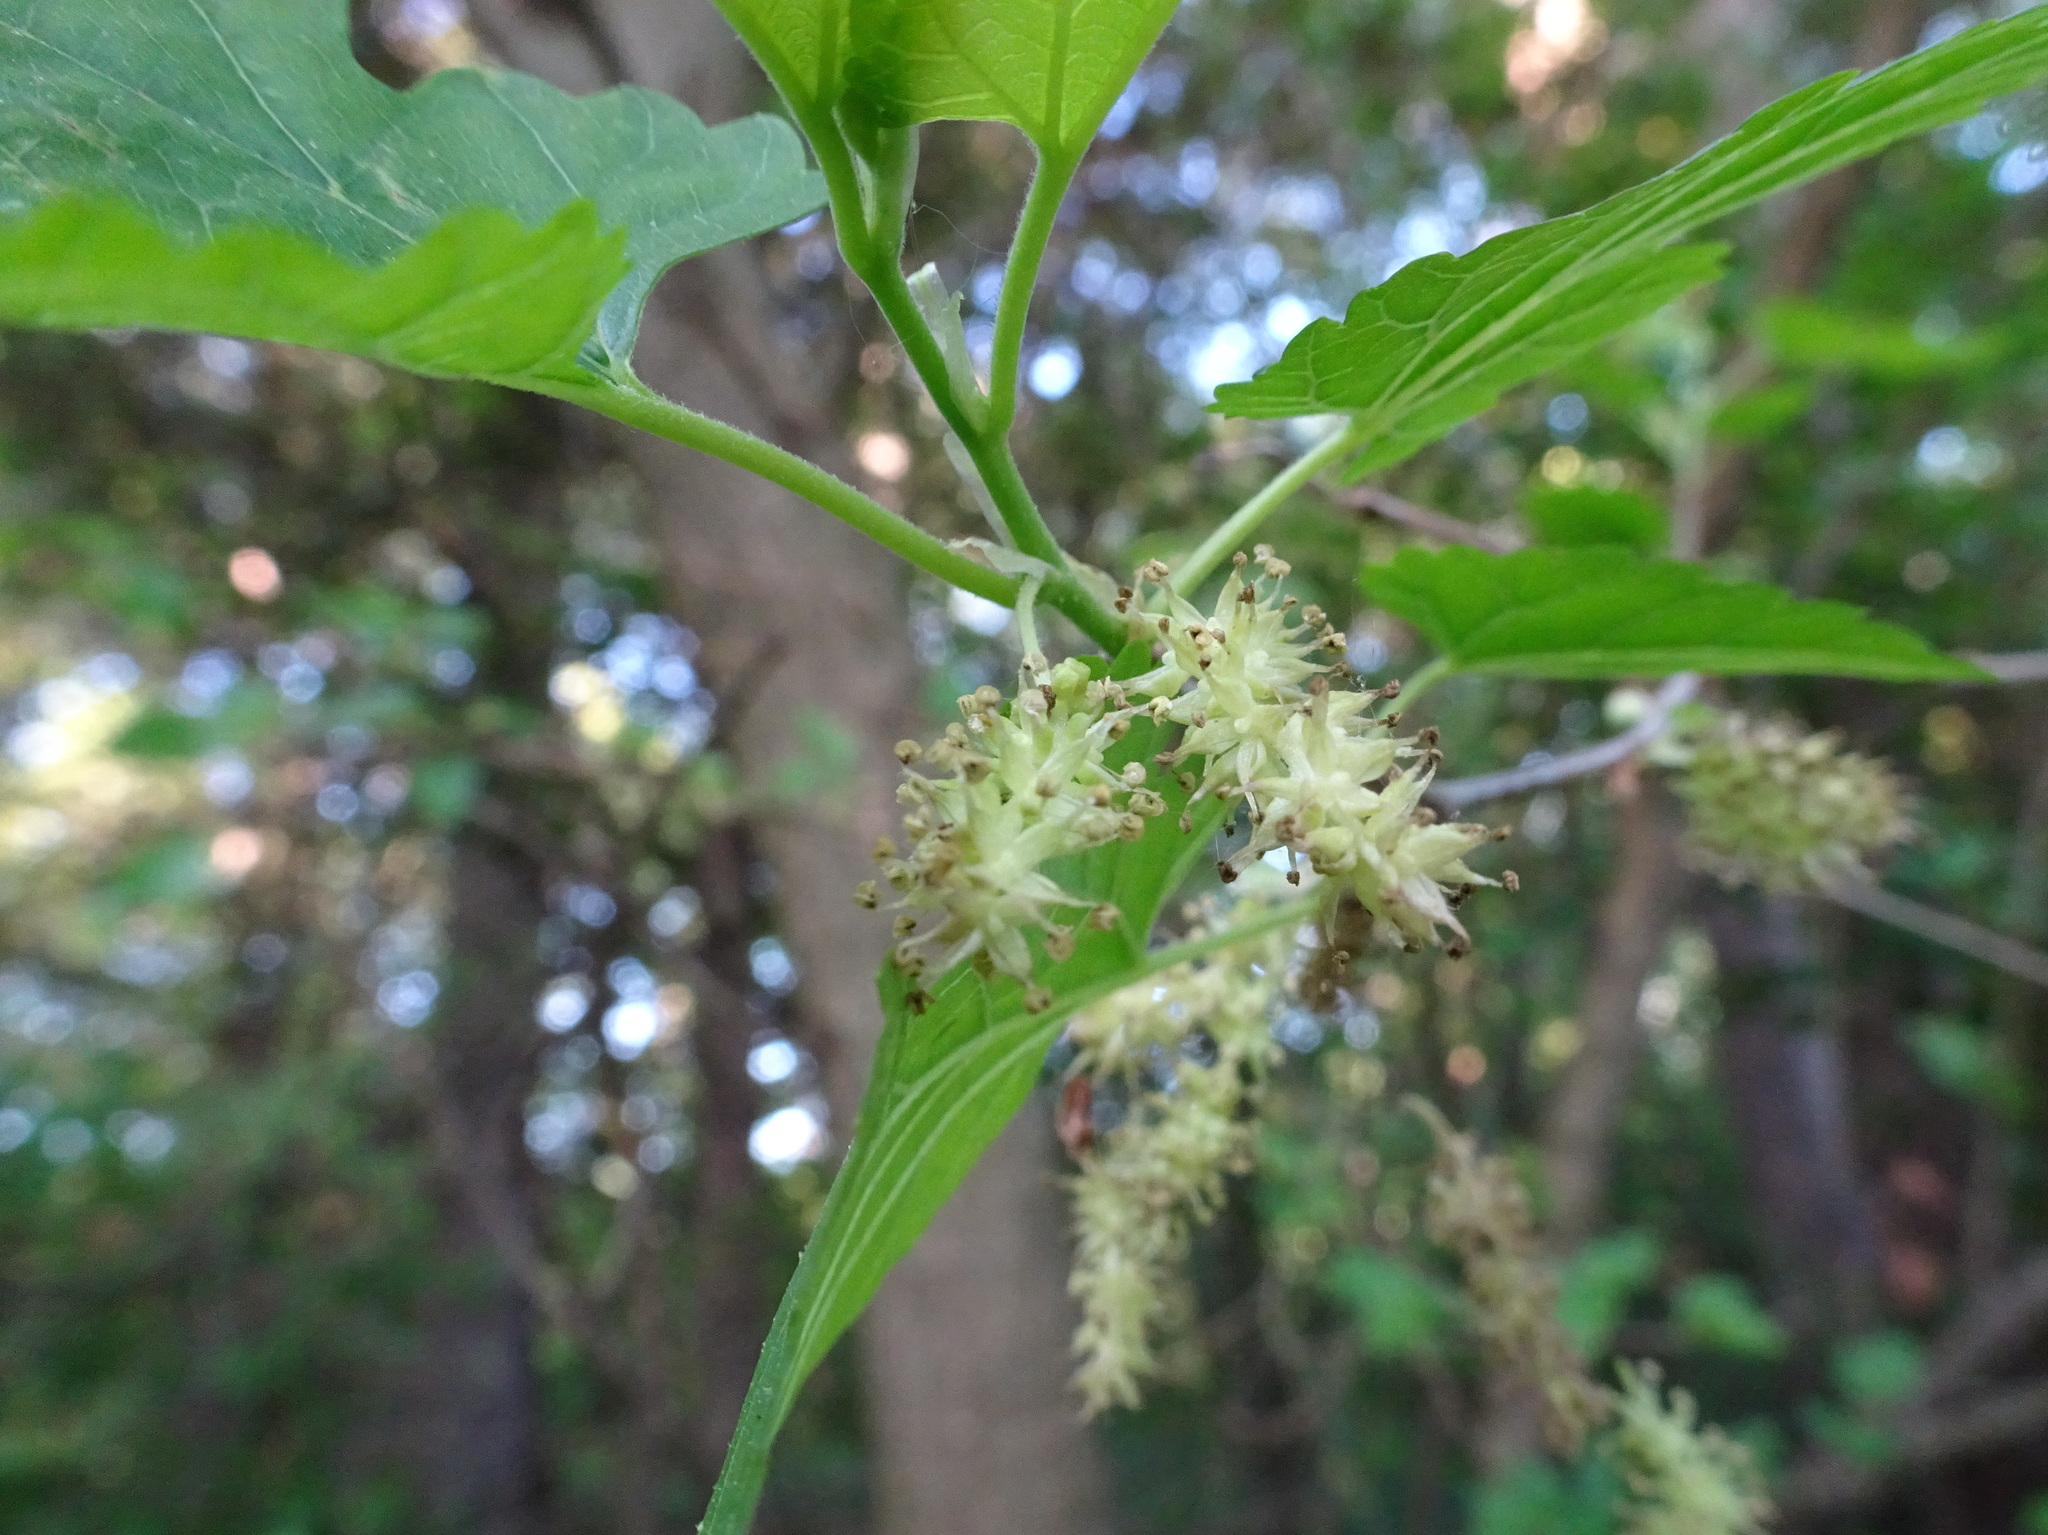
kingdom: Plantae
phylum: Tracheophyta
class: Magnoliopsida
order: Rosales
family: Moraceae
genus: Morus
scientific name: Morus alba
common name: White mulberry
